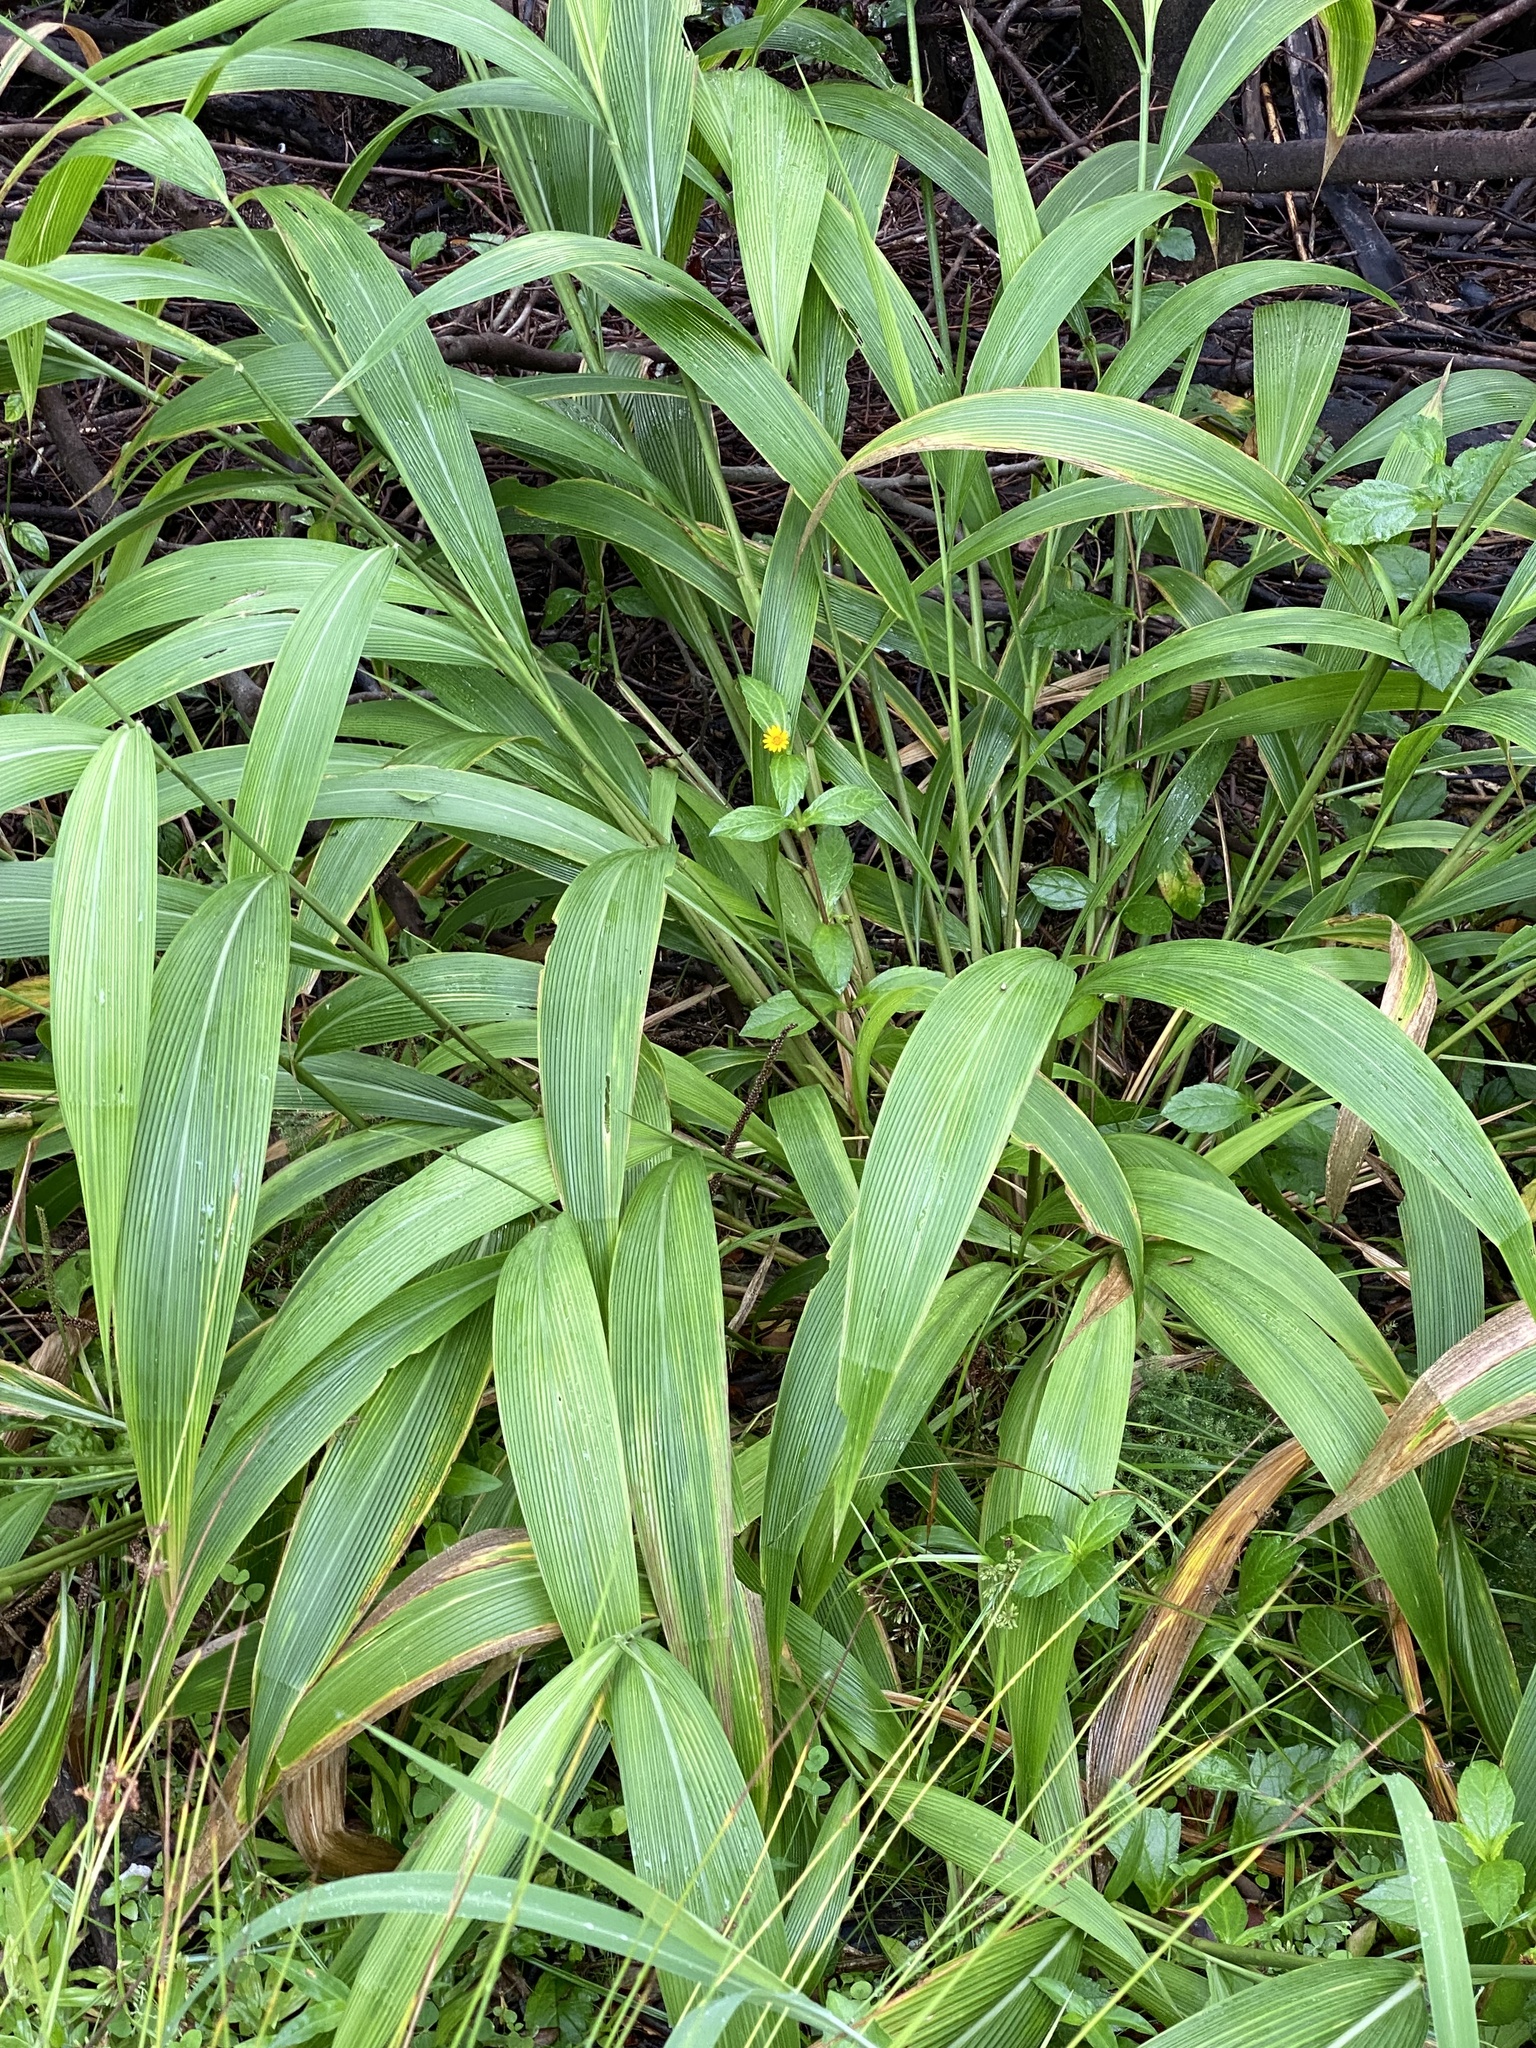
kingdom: Plantae
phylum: Tracheophyta
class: Liliopsida
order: Poales
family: Poaceae
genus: Setaria
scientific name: Setaria palmifolia
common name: Broadleaved bristlegrass
